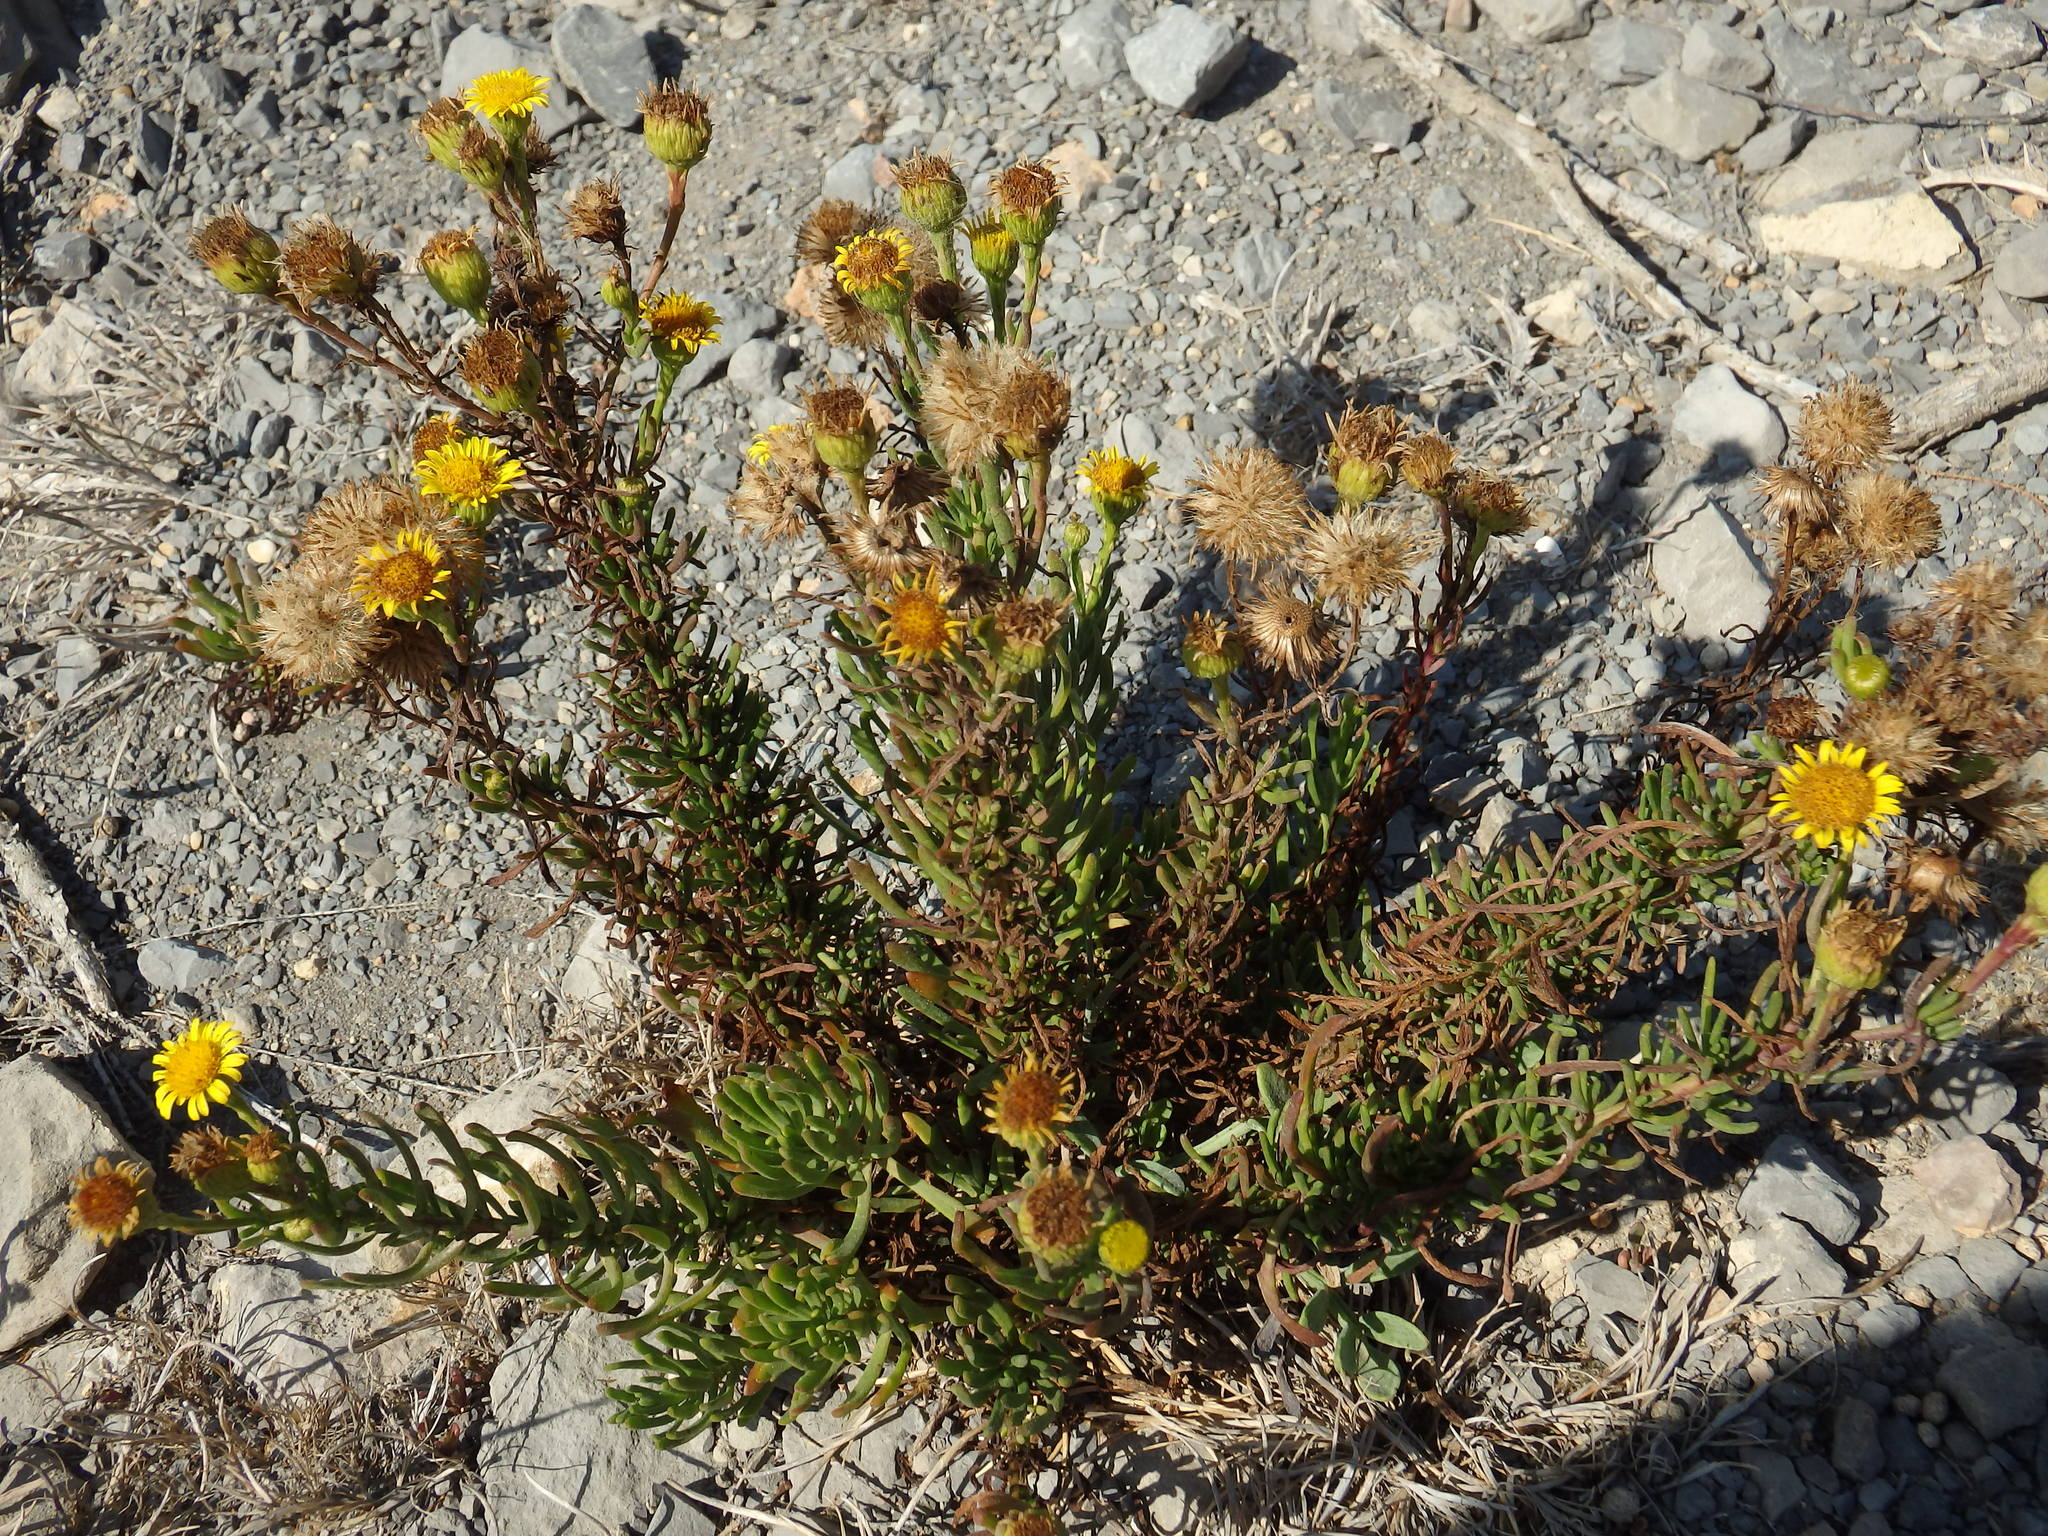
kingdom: Plantae
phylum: Tracheophyta
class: Magnoliopsida
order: Asterales
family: Asteraceae
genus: Limbarda
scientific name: Limbarda crithmoides
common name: Golden samphire
